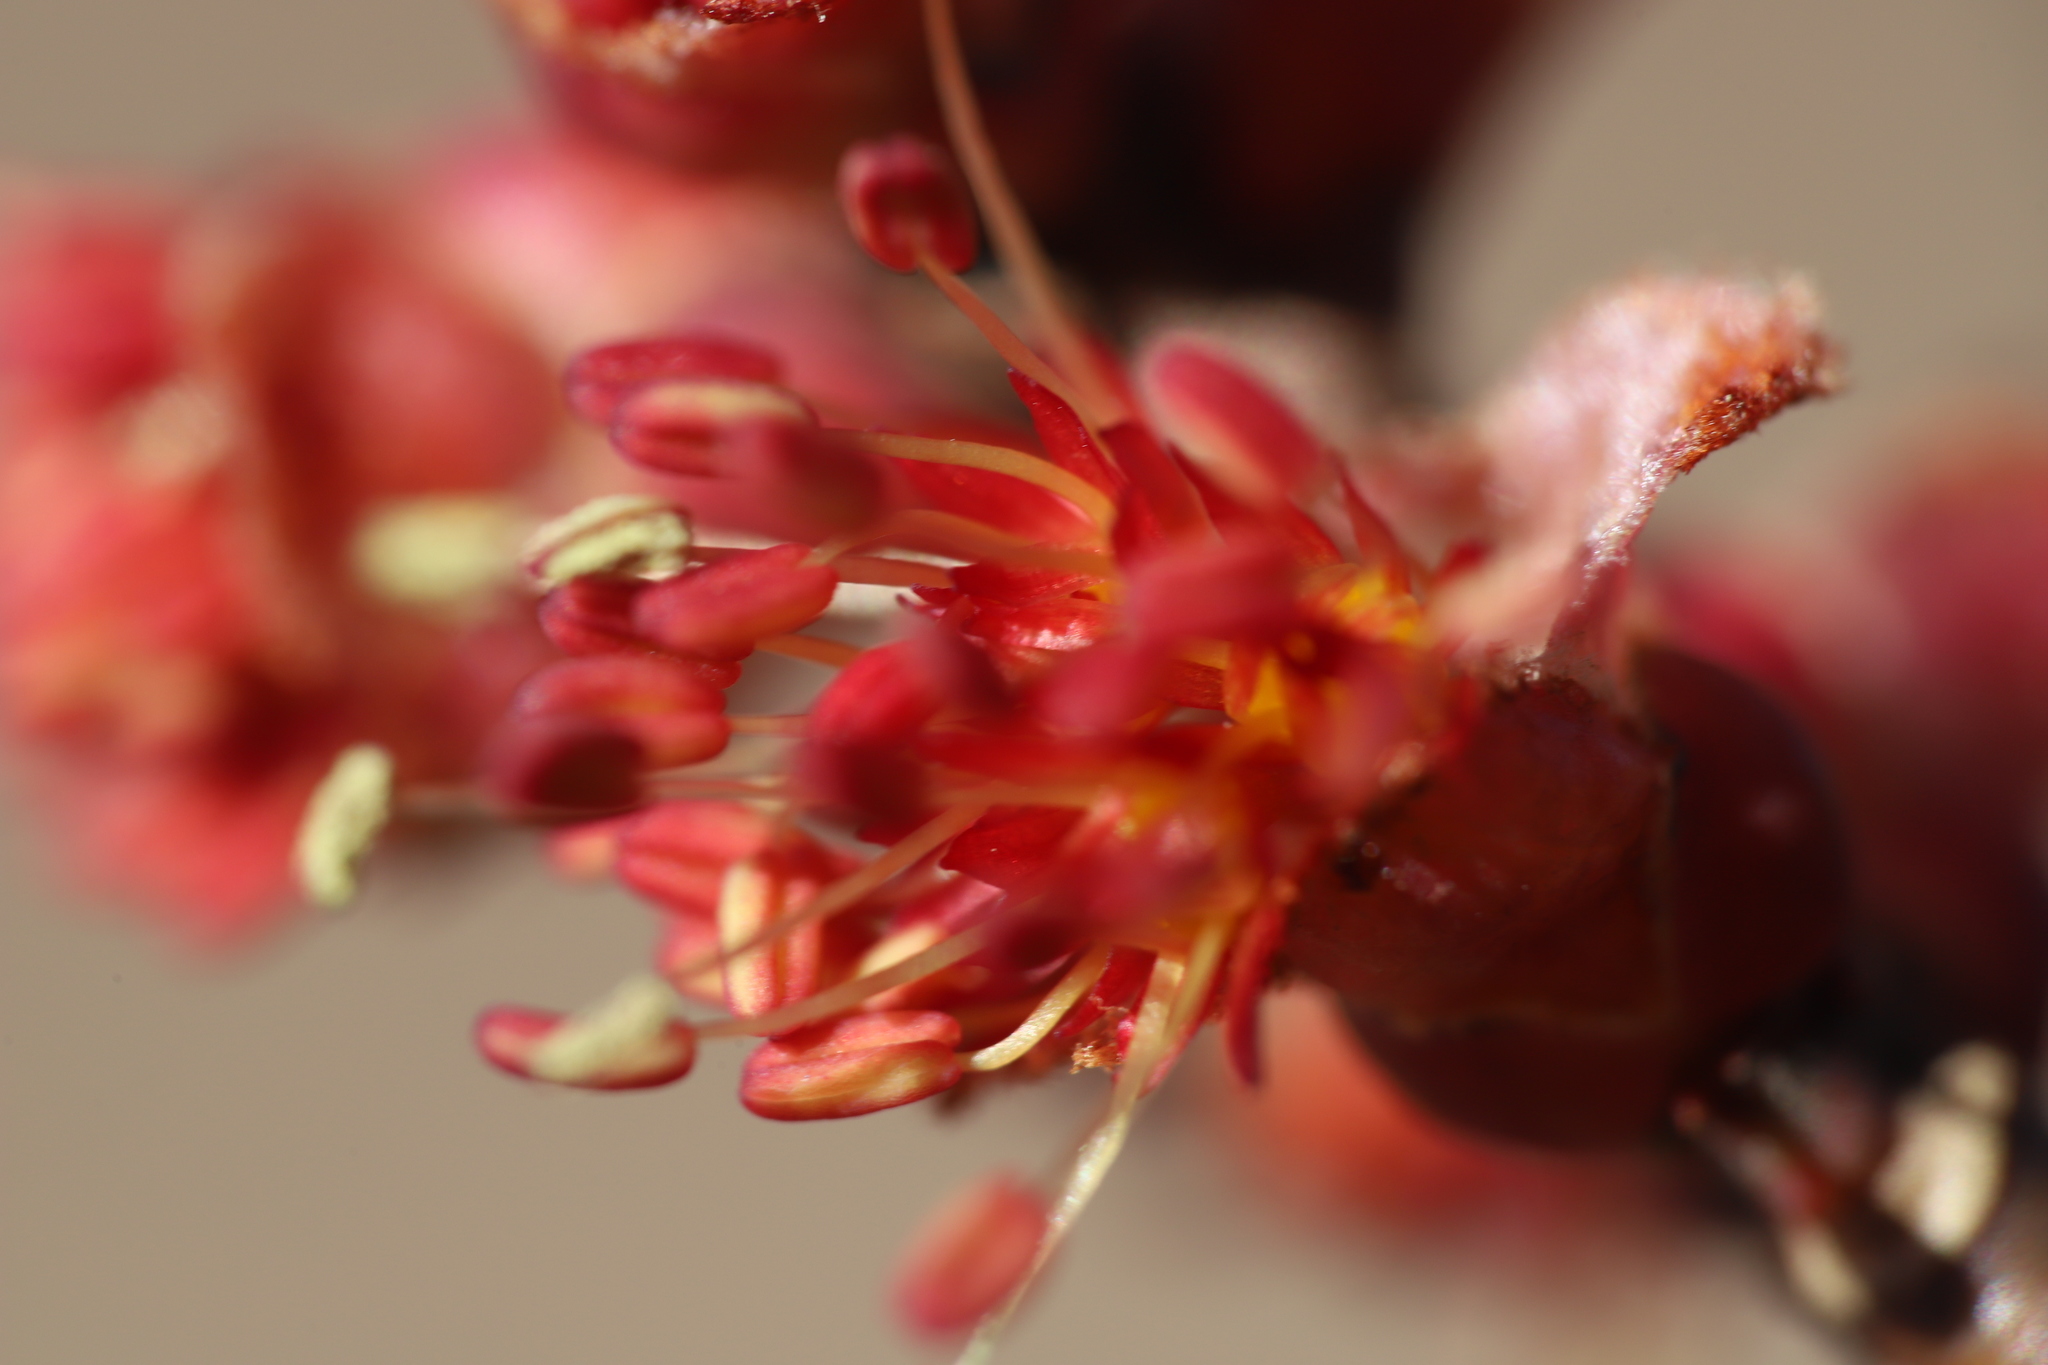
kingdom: Plantae
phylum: Tracheophyta
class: Magnoliopsida
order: Sapindales
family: Sapindaceae
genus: Acer
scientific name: Acer rubrum
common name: Red maple
